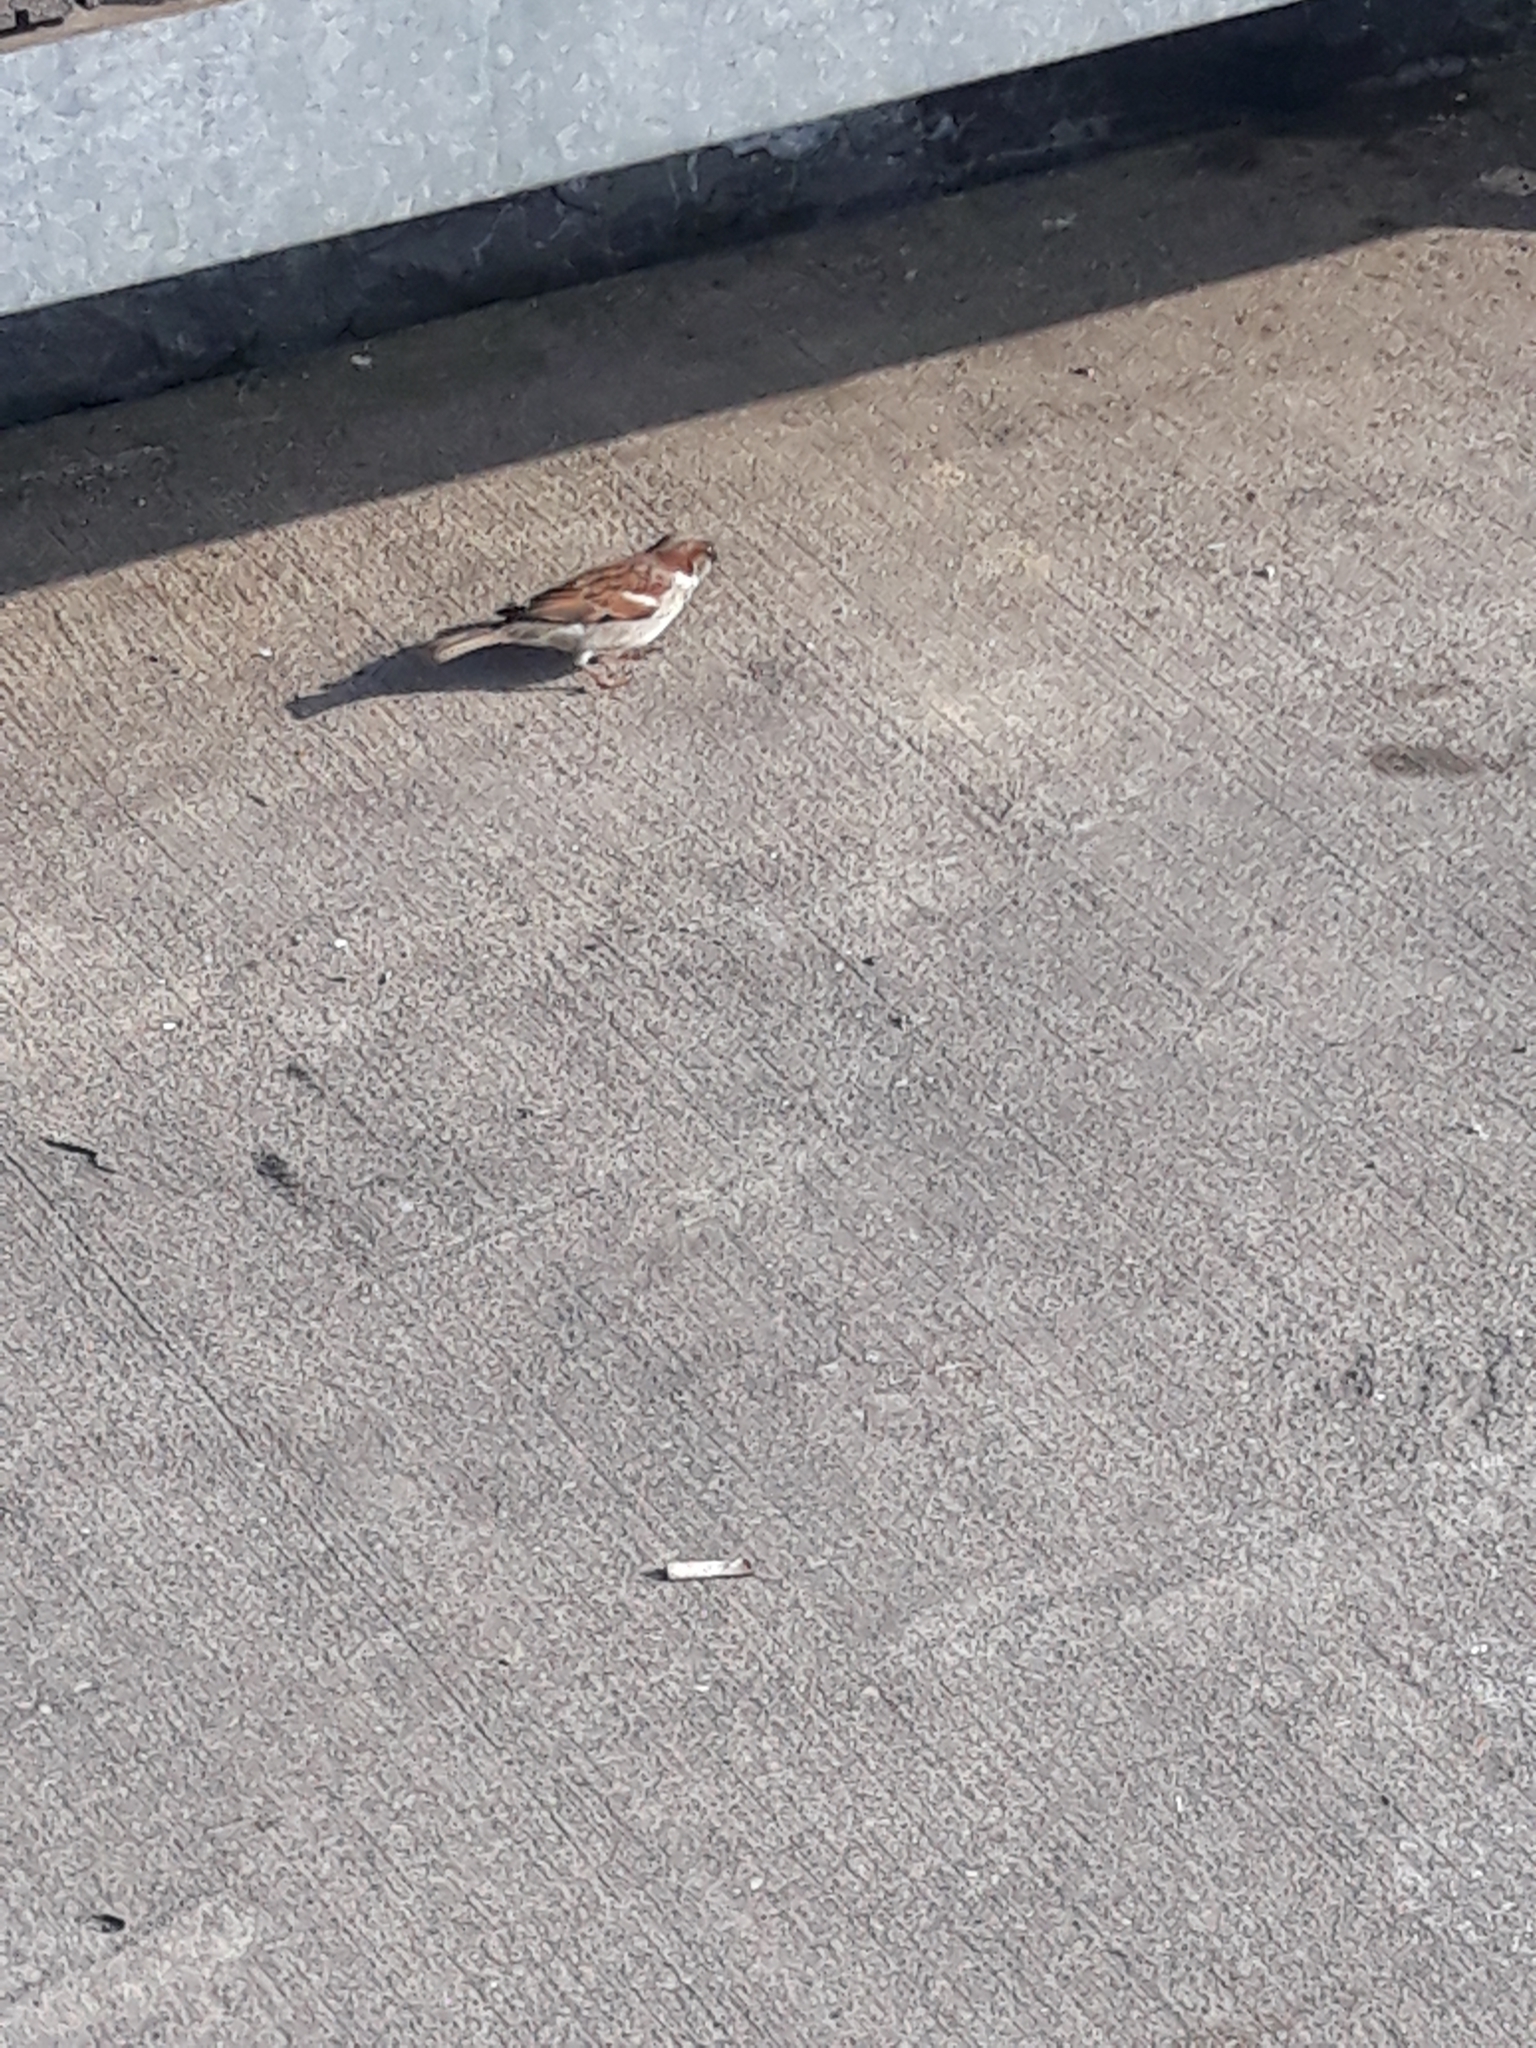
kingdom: Animalia
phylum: Chordata
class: Aves
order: Passeriformes
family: Passeridae
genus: Passer
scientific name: Passer domesticus
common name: House sparrow
